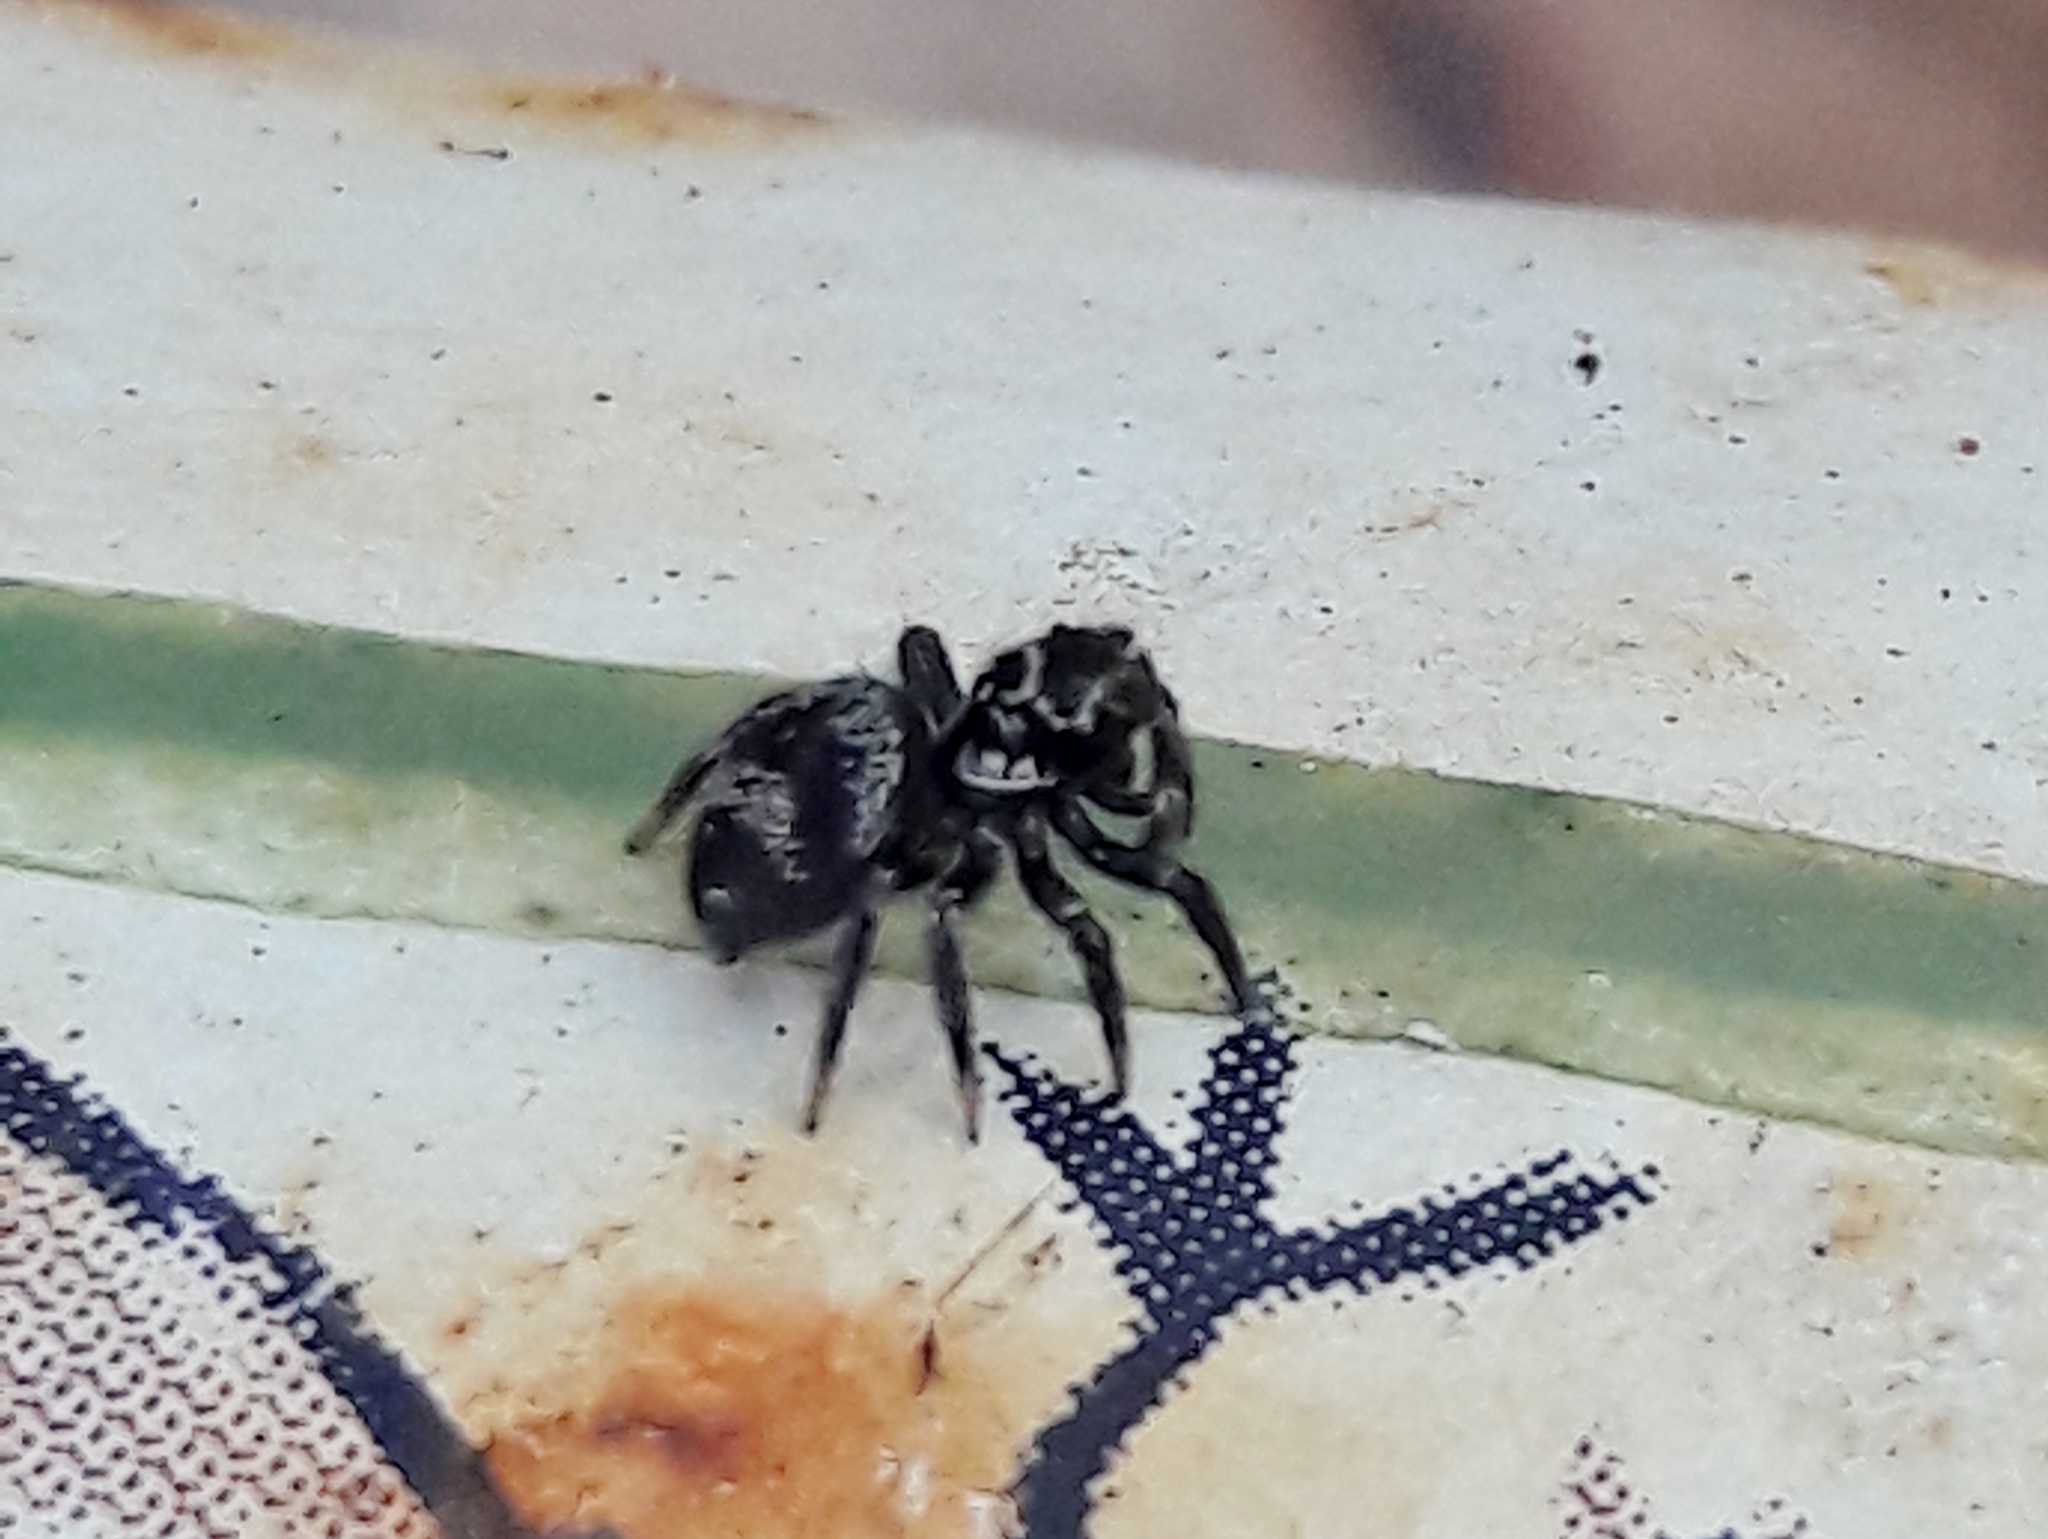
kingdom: Animalia
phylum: Arthropoda
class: Arachnida
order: Araneae
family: Salticidae
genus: Corythalia
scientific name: Corythalia conferta
